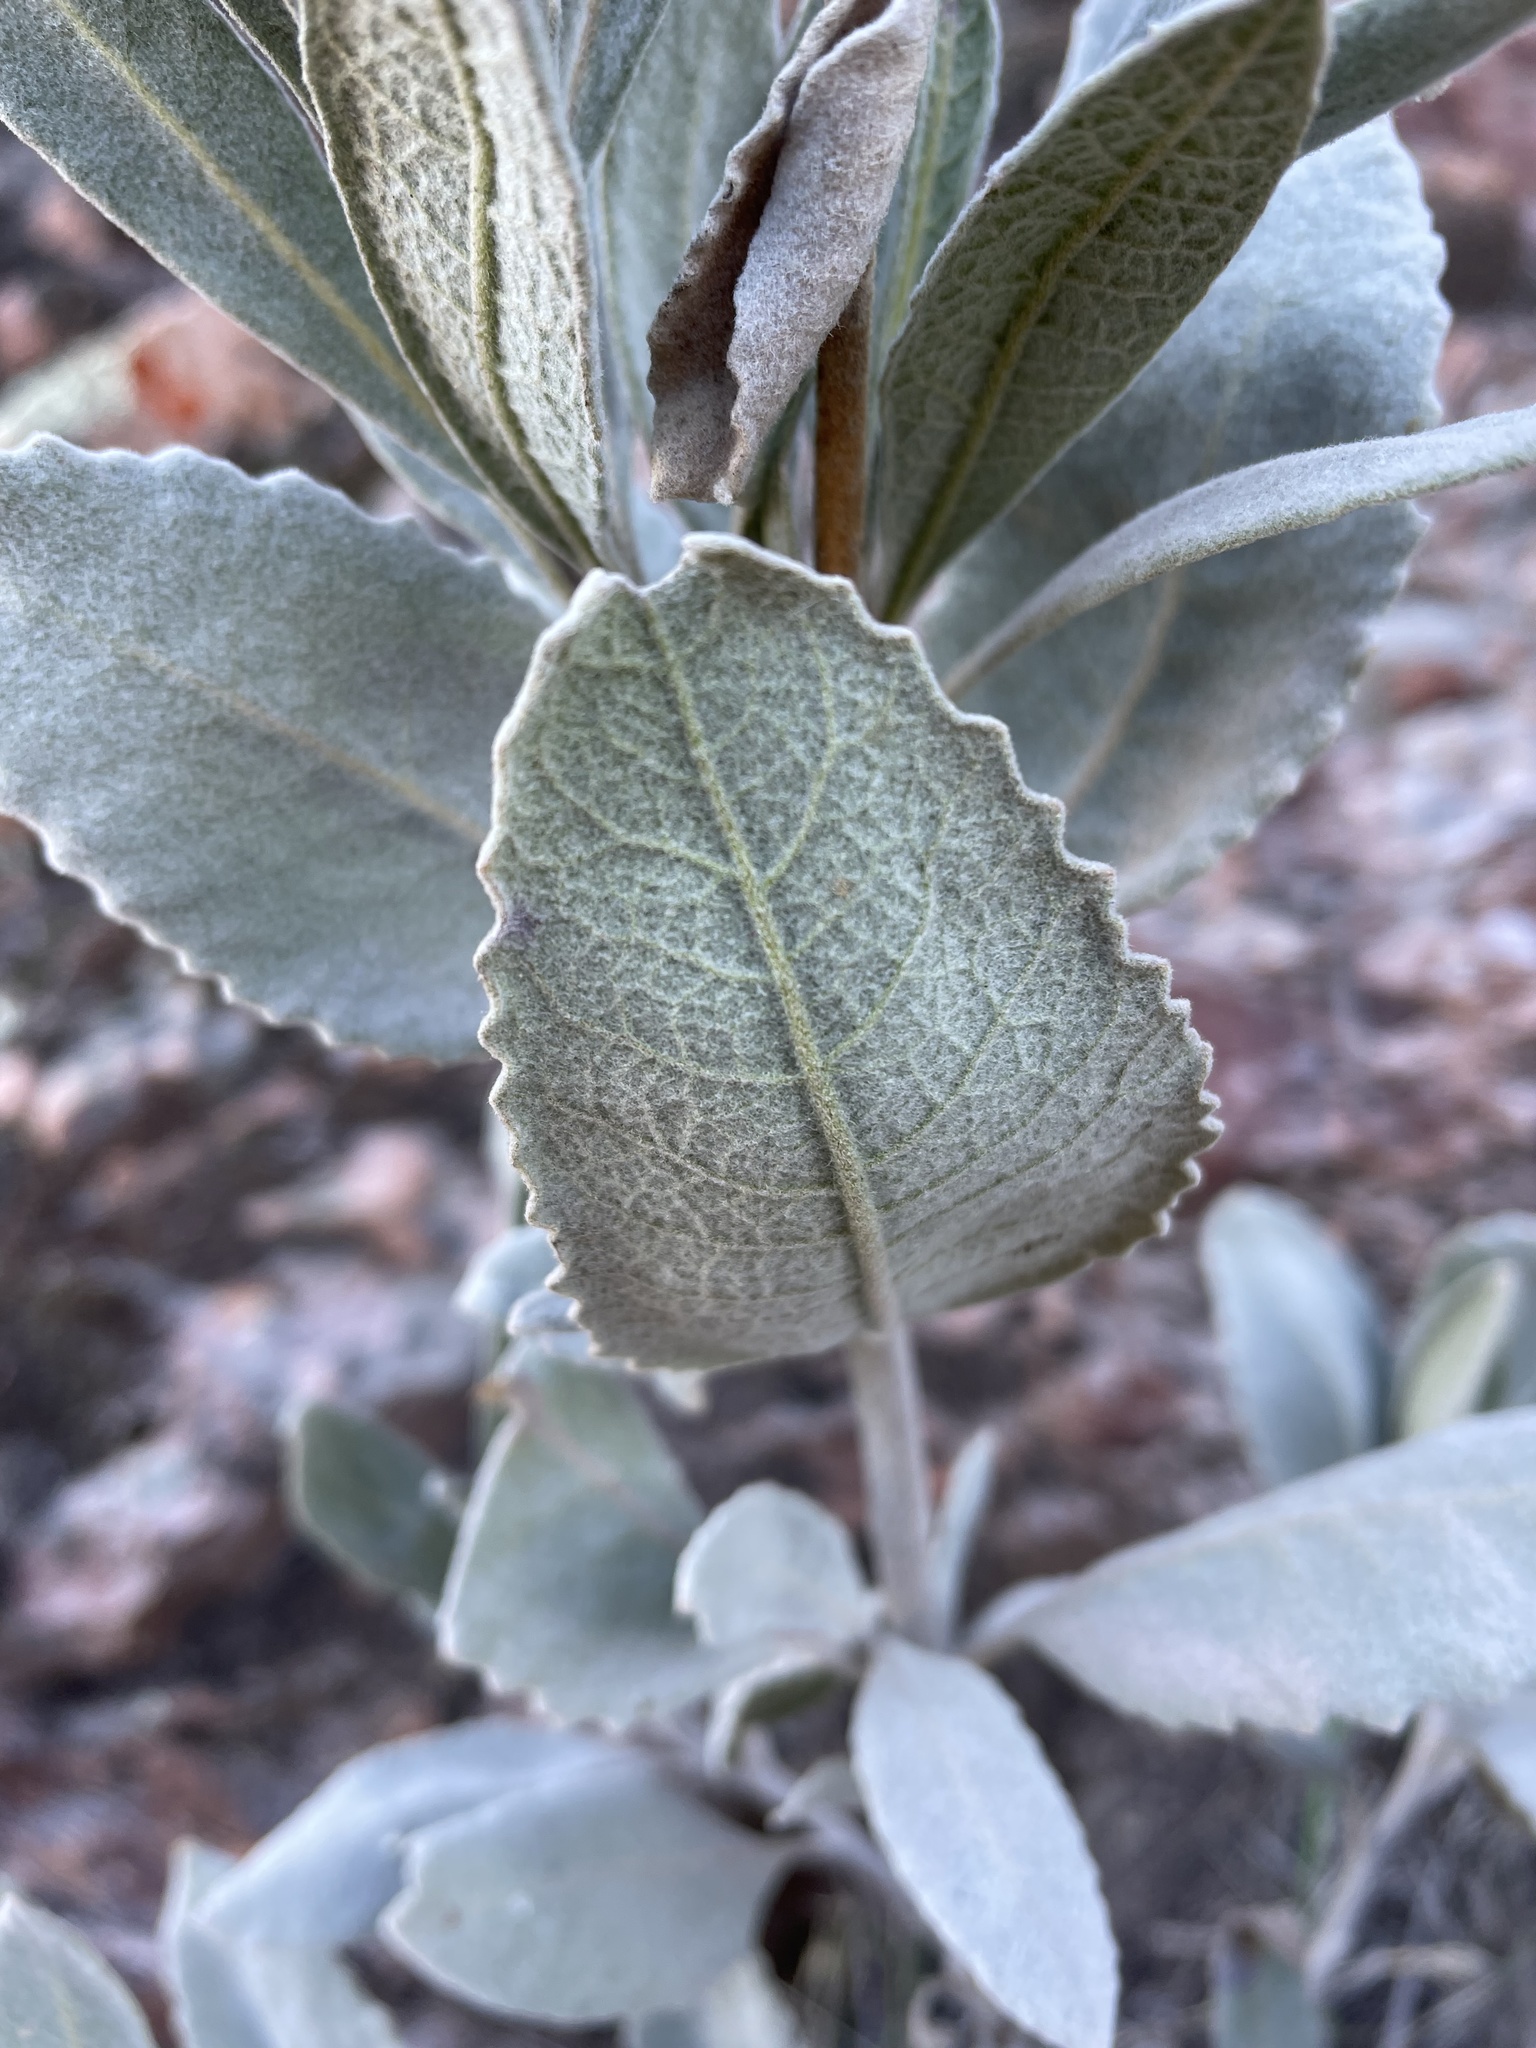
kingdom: Plantae
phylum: Tracheophyta
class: Magnoliopsida
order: Boraginales
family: Namaceae
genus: Eriodictyon
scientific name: Eriodictyon tomentosum
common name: Woolly yerba-santa
